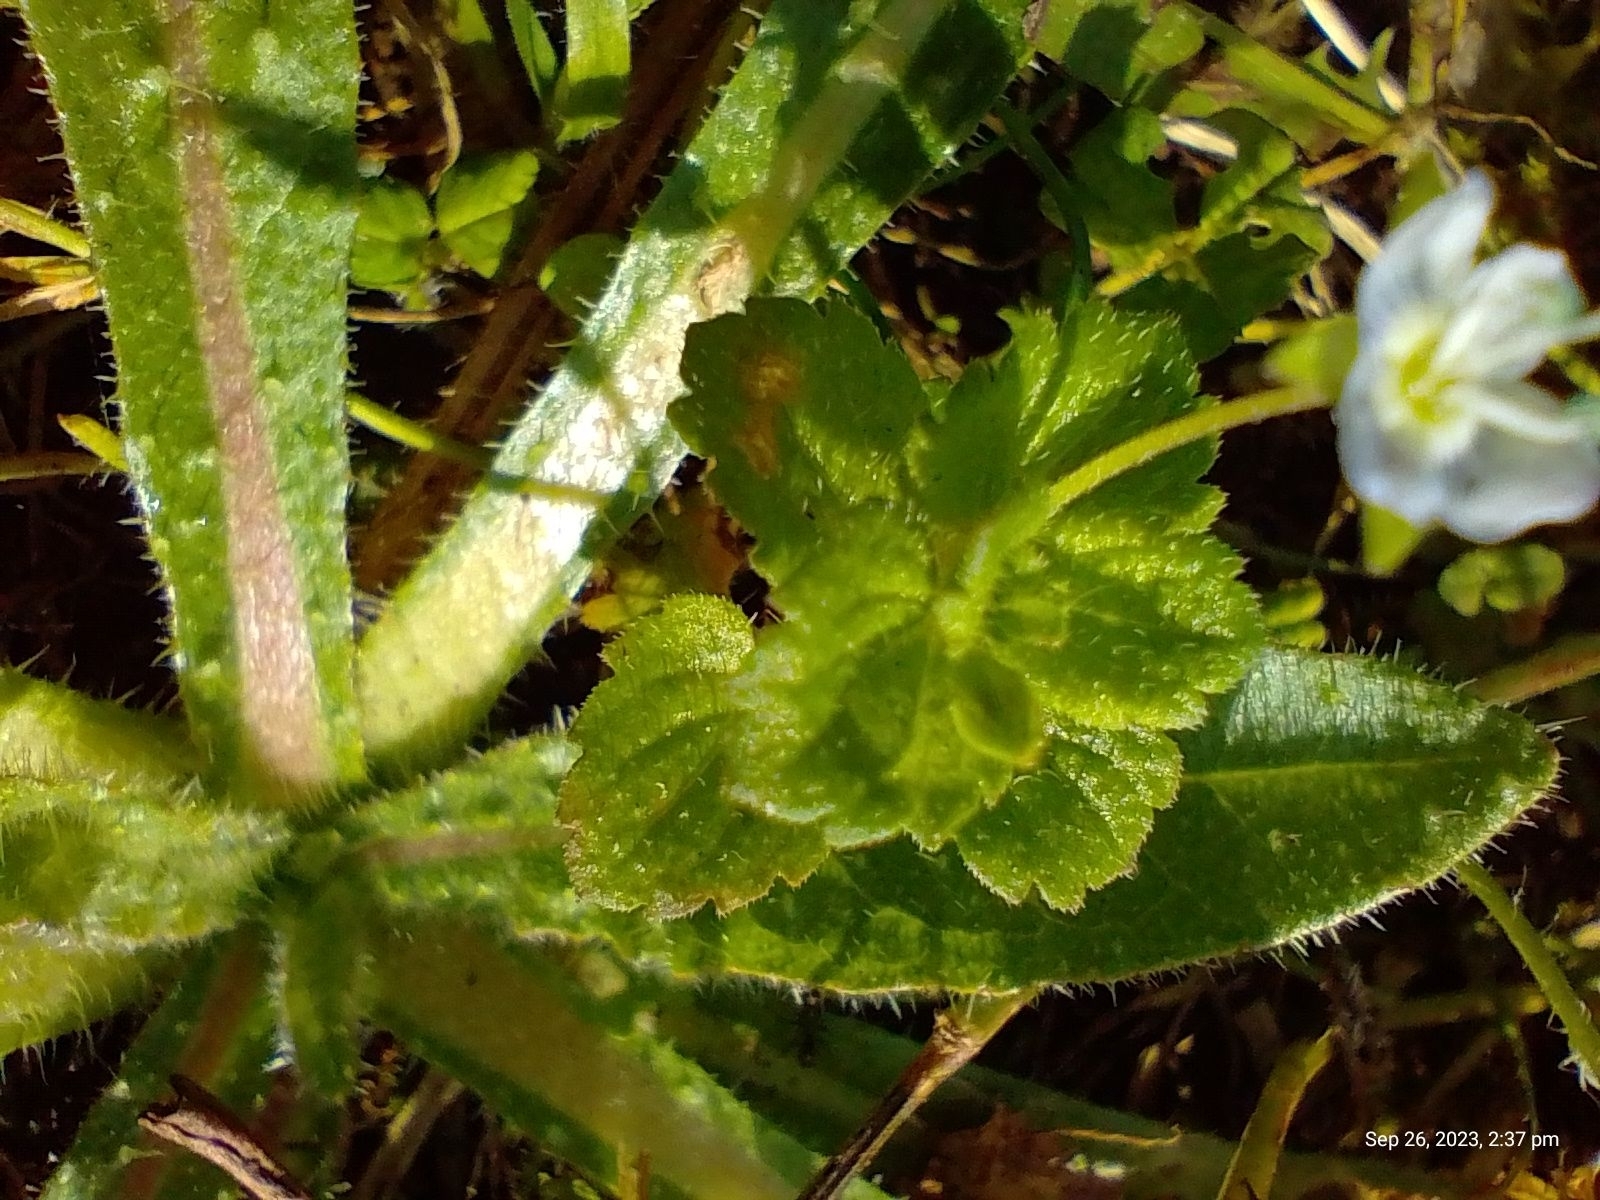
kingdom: Plantae
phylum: Tracheophyta
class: Magnoliopsida
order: Lamiales
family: Plantaginaceae
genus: Veronica
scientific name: Veronica persica
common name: Common field-speedwell
